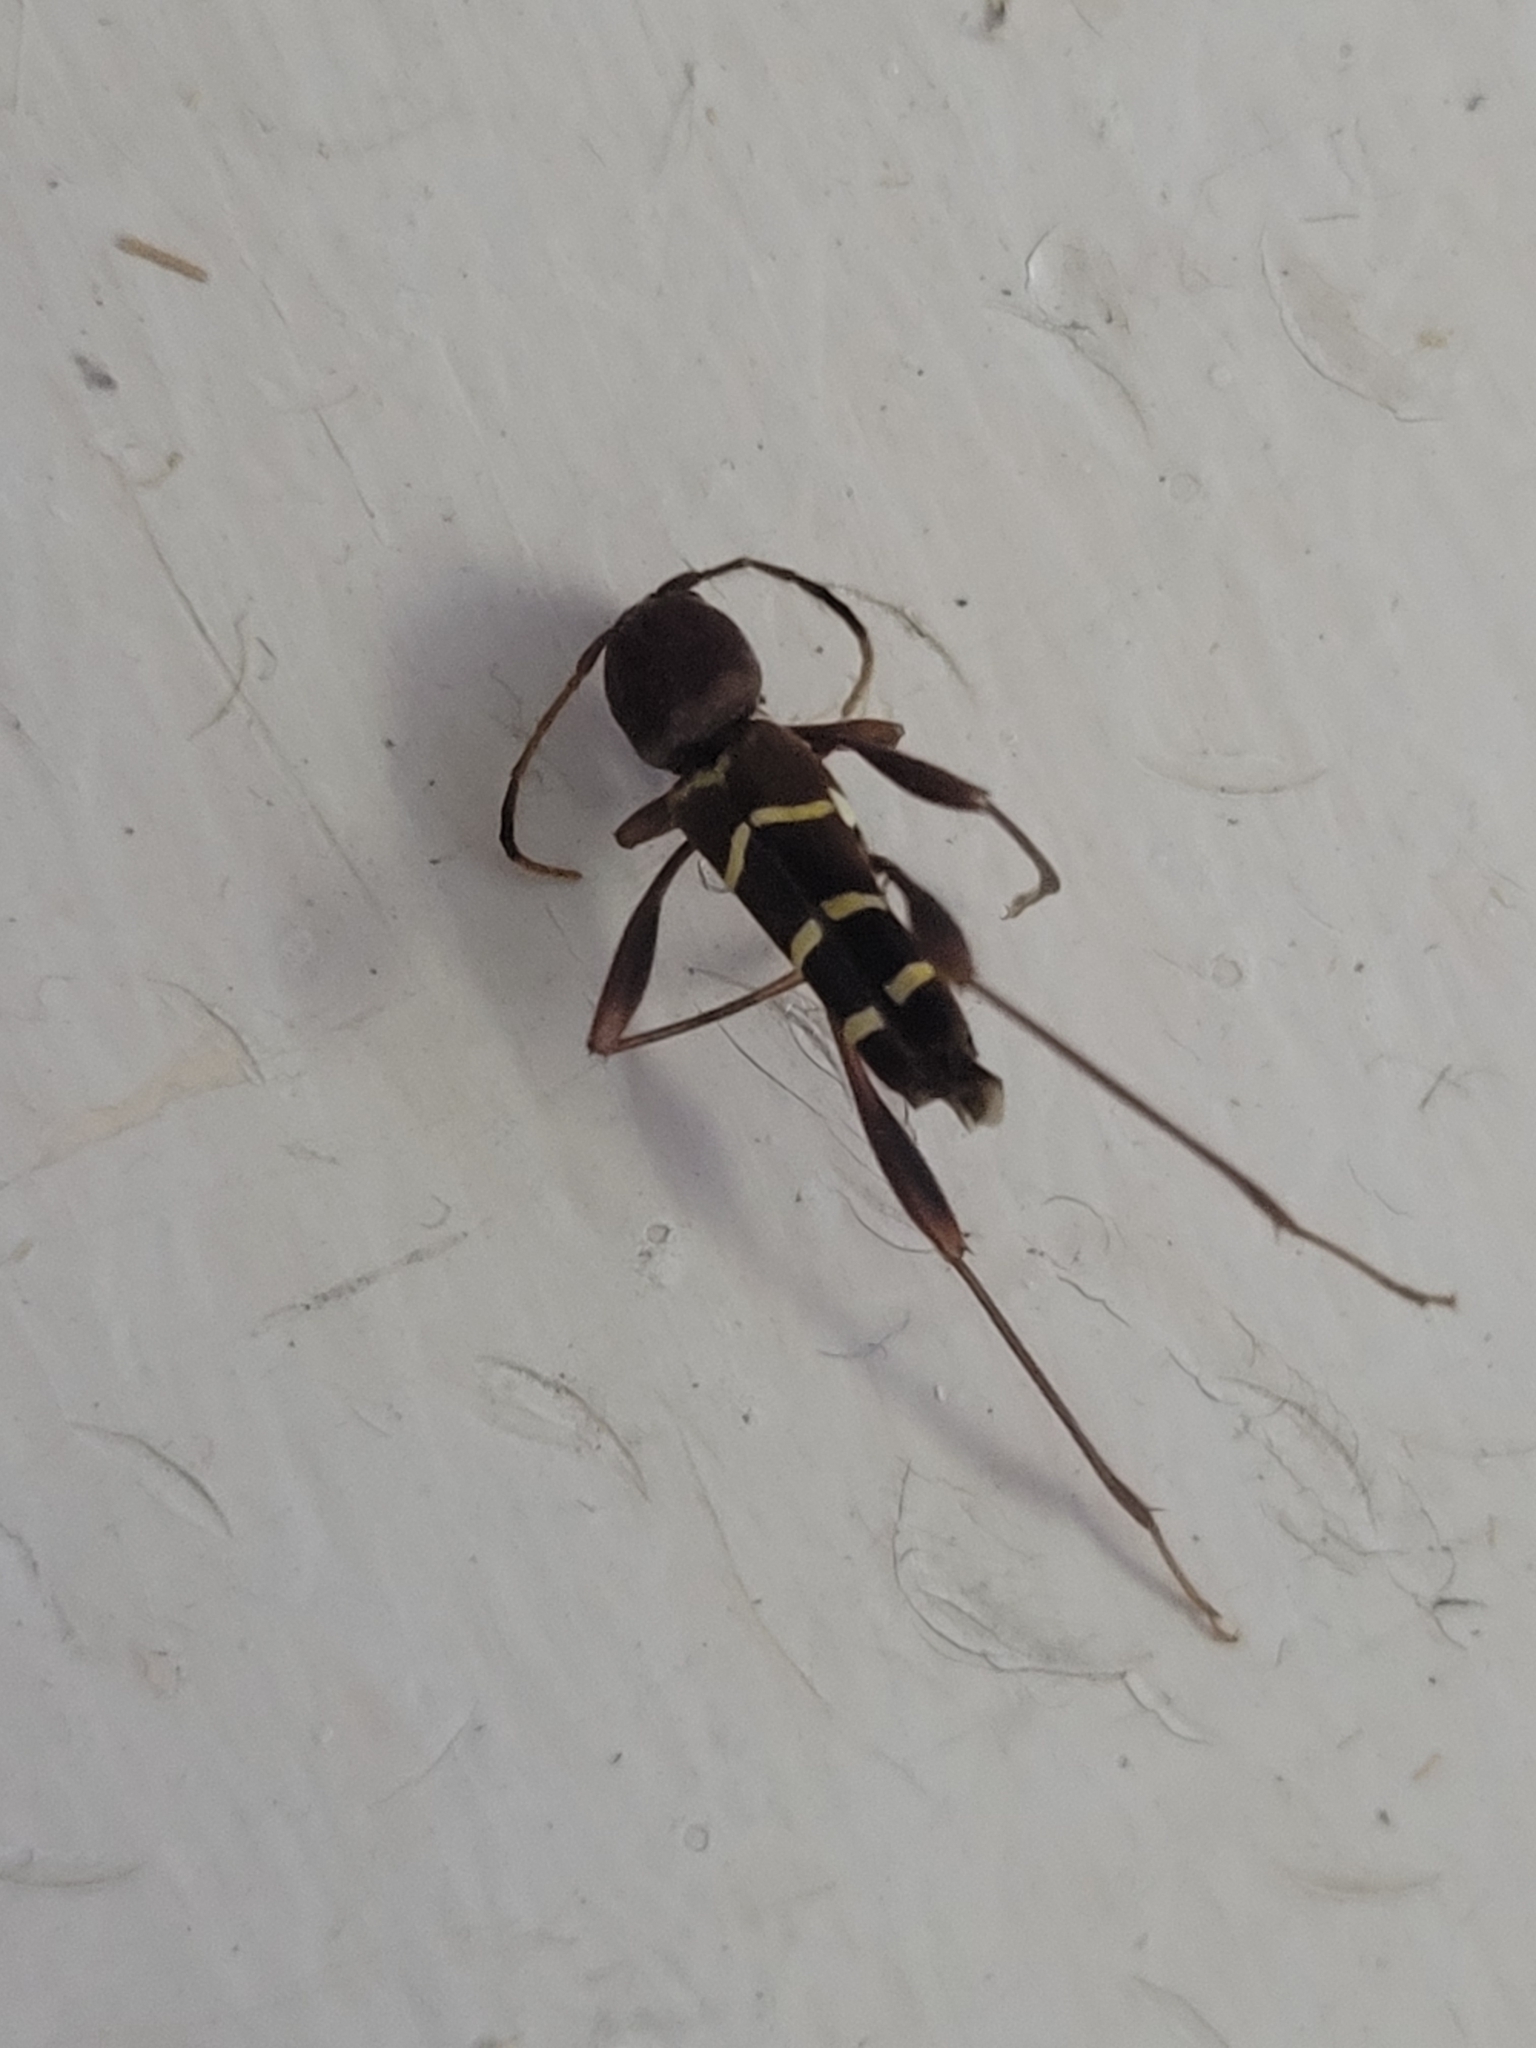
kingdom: Animalia
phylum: Arthropoda
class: Insecta
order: Coleoptera
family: Cerambycidae
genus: Neoclytus
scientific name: Neoclytus acuminatus
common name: Read-headed ash borer
